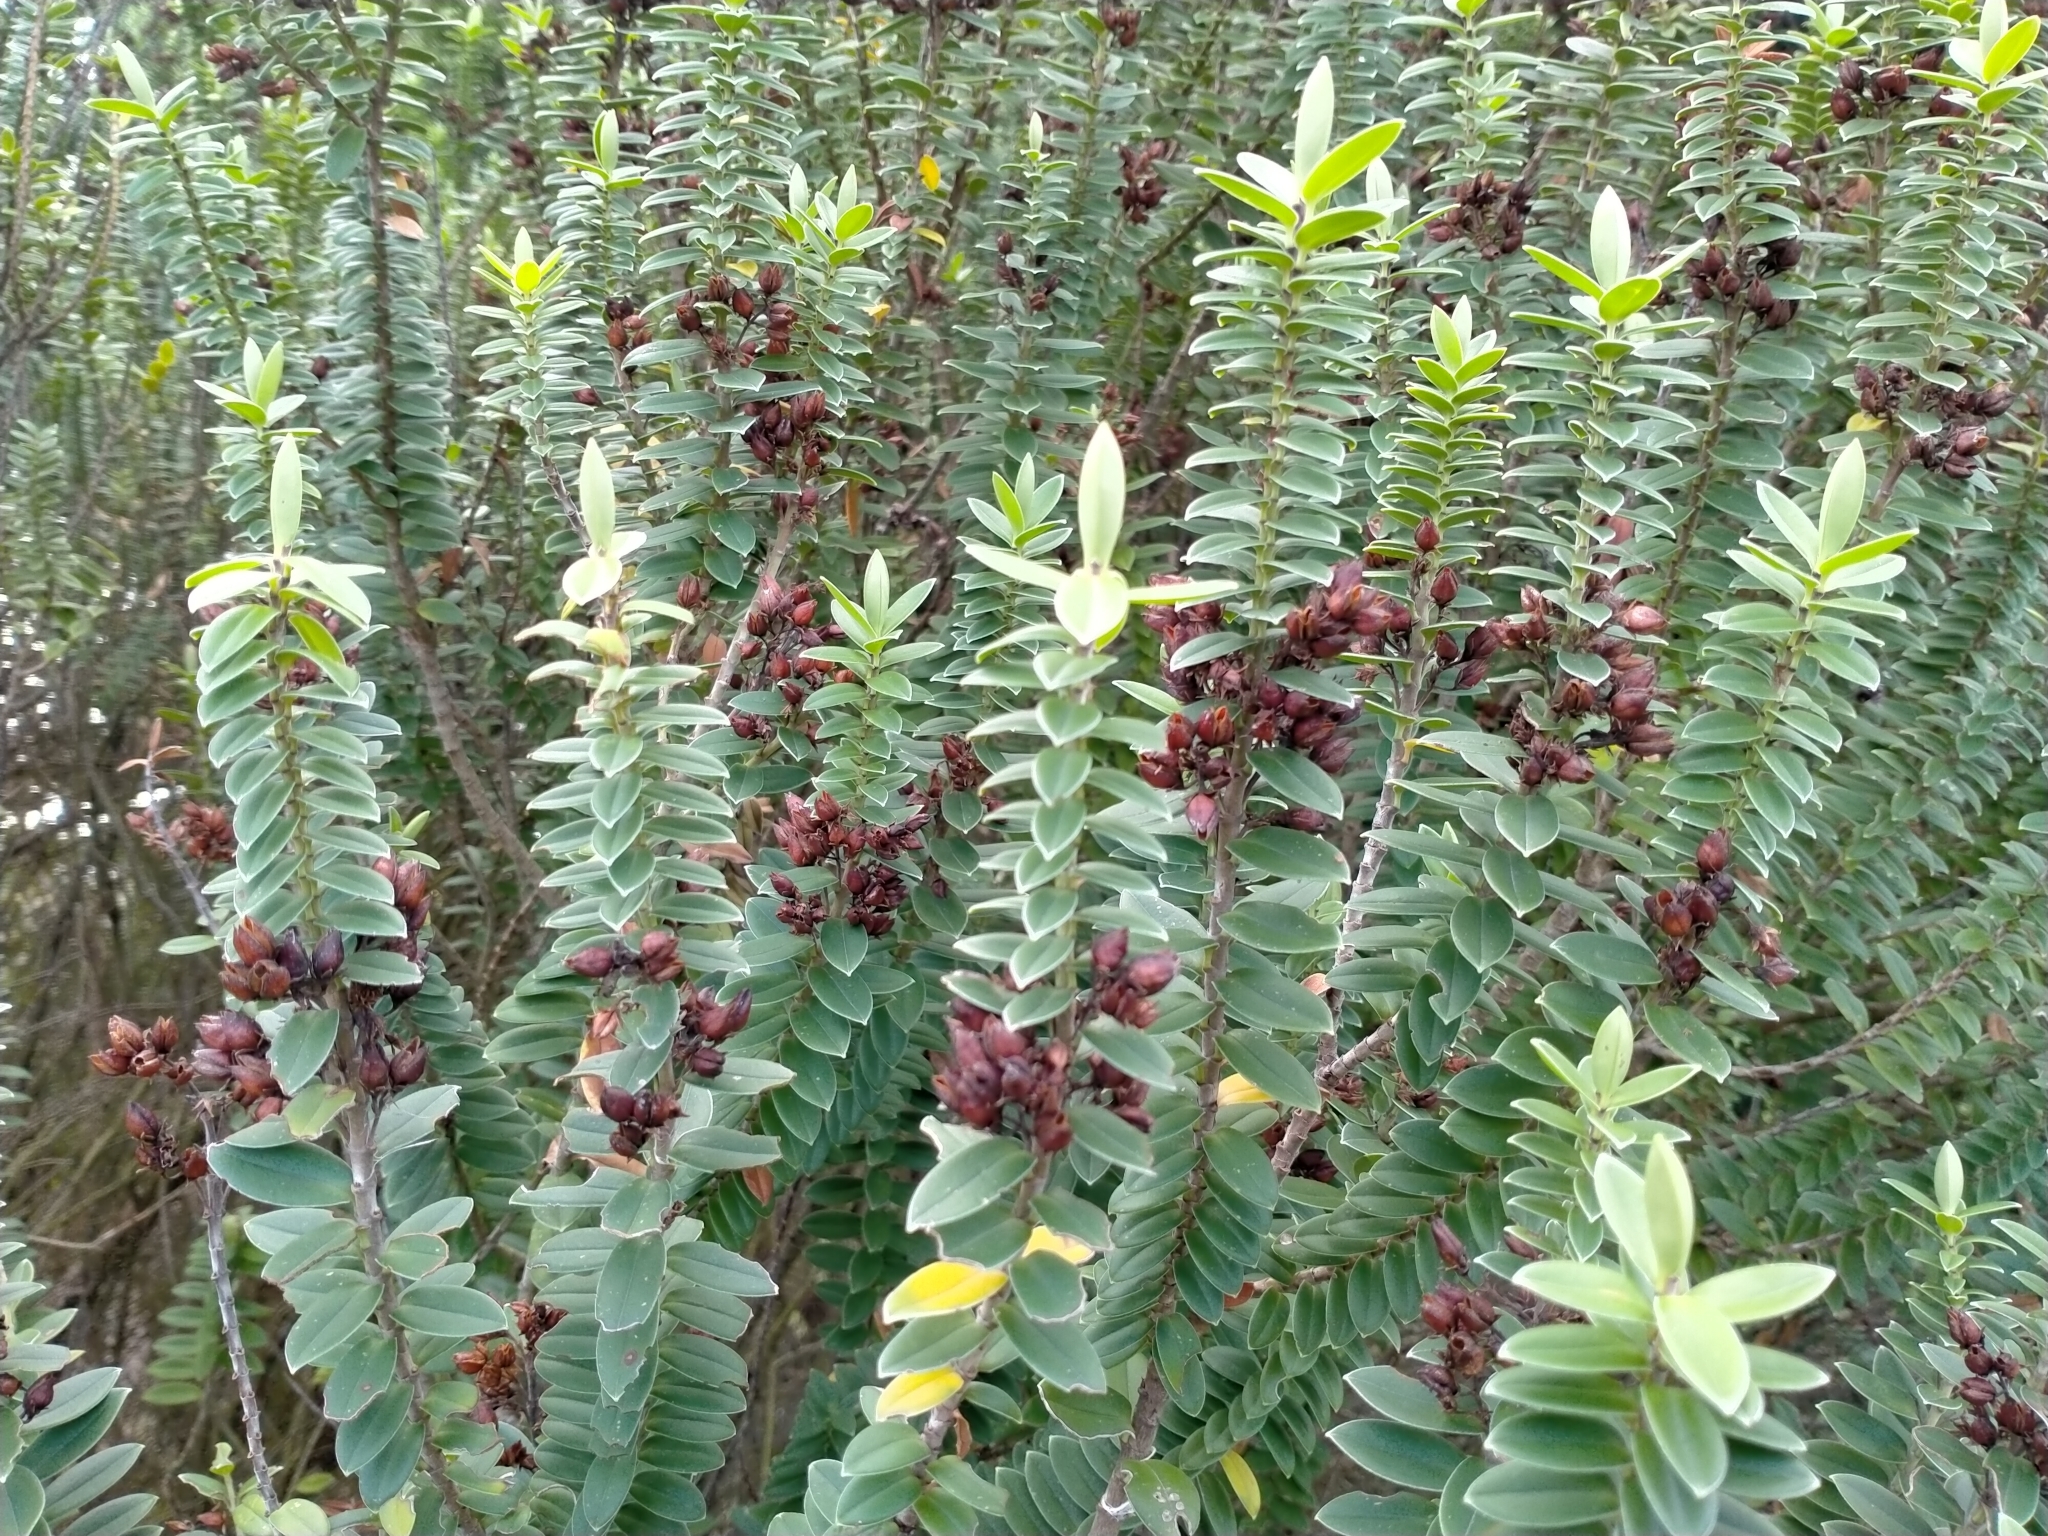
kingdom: Plantae
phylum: Tracheophyta
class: Magnoliopsida
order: Lamiales
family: Plantaginaceae
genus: Veronica
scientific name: Veronica elliptica
